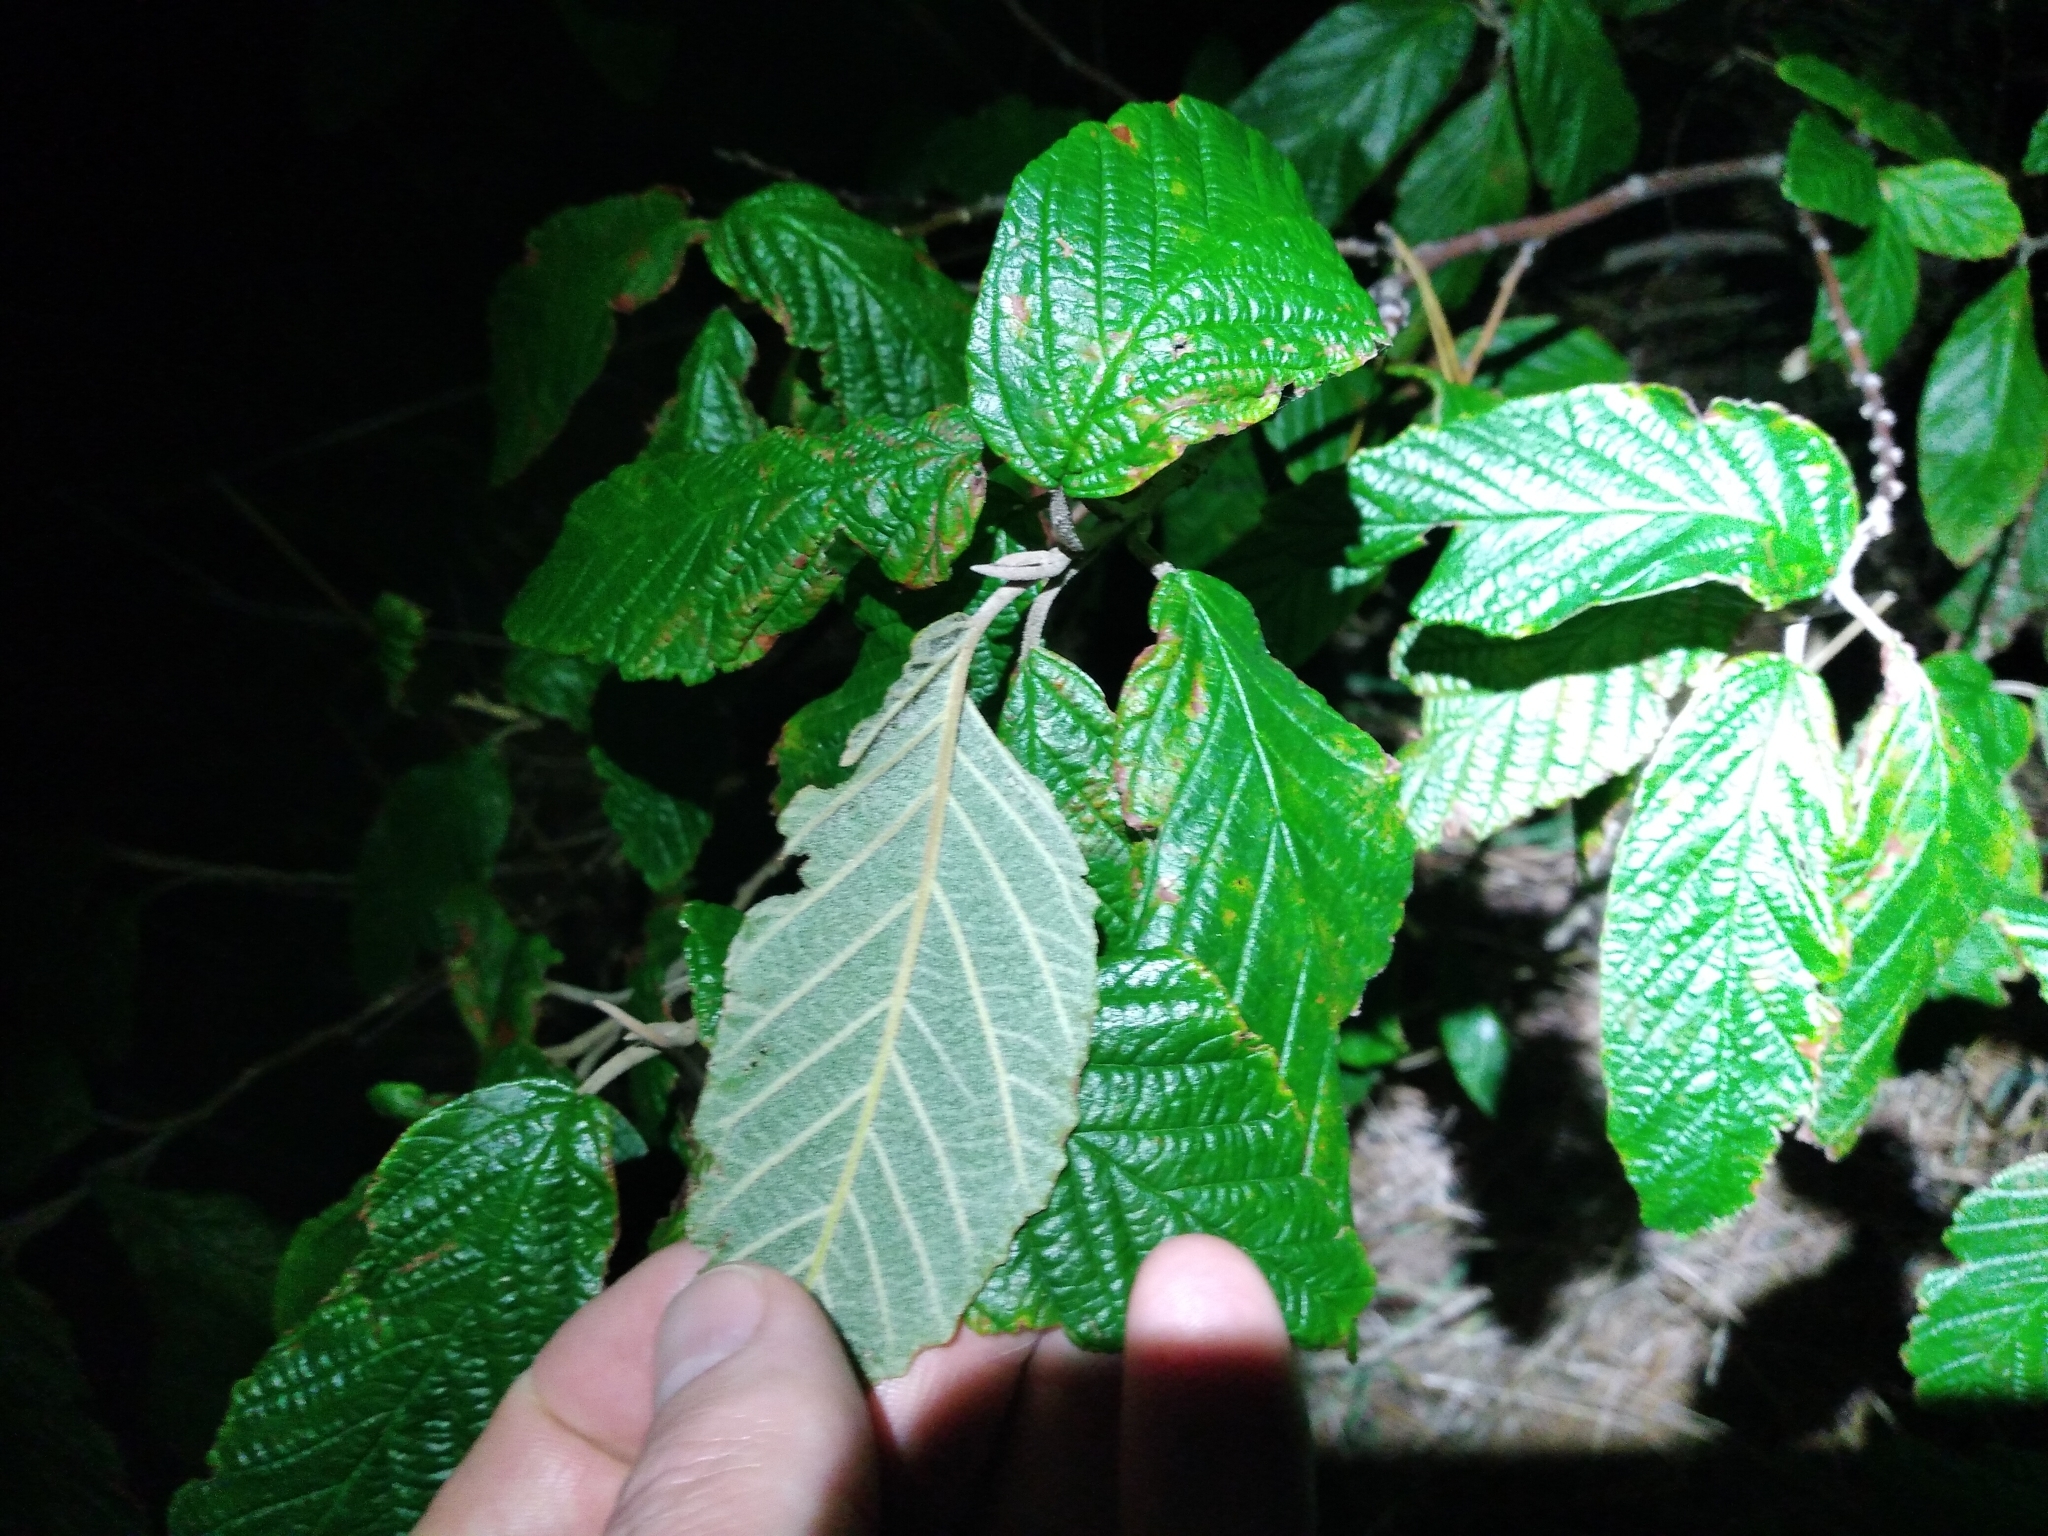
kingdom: Plantae
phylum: Tracheophyta
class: Magnoliopsida
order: Rosales
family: Rhamnaceae
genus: Pomaderris
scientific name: Pomaderris aspera
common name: Hazel pomaderris
